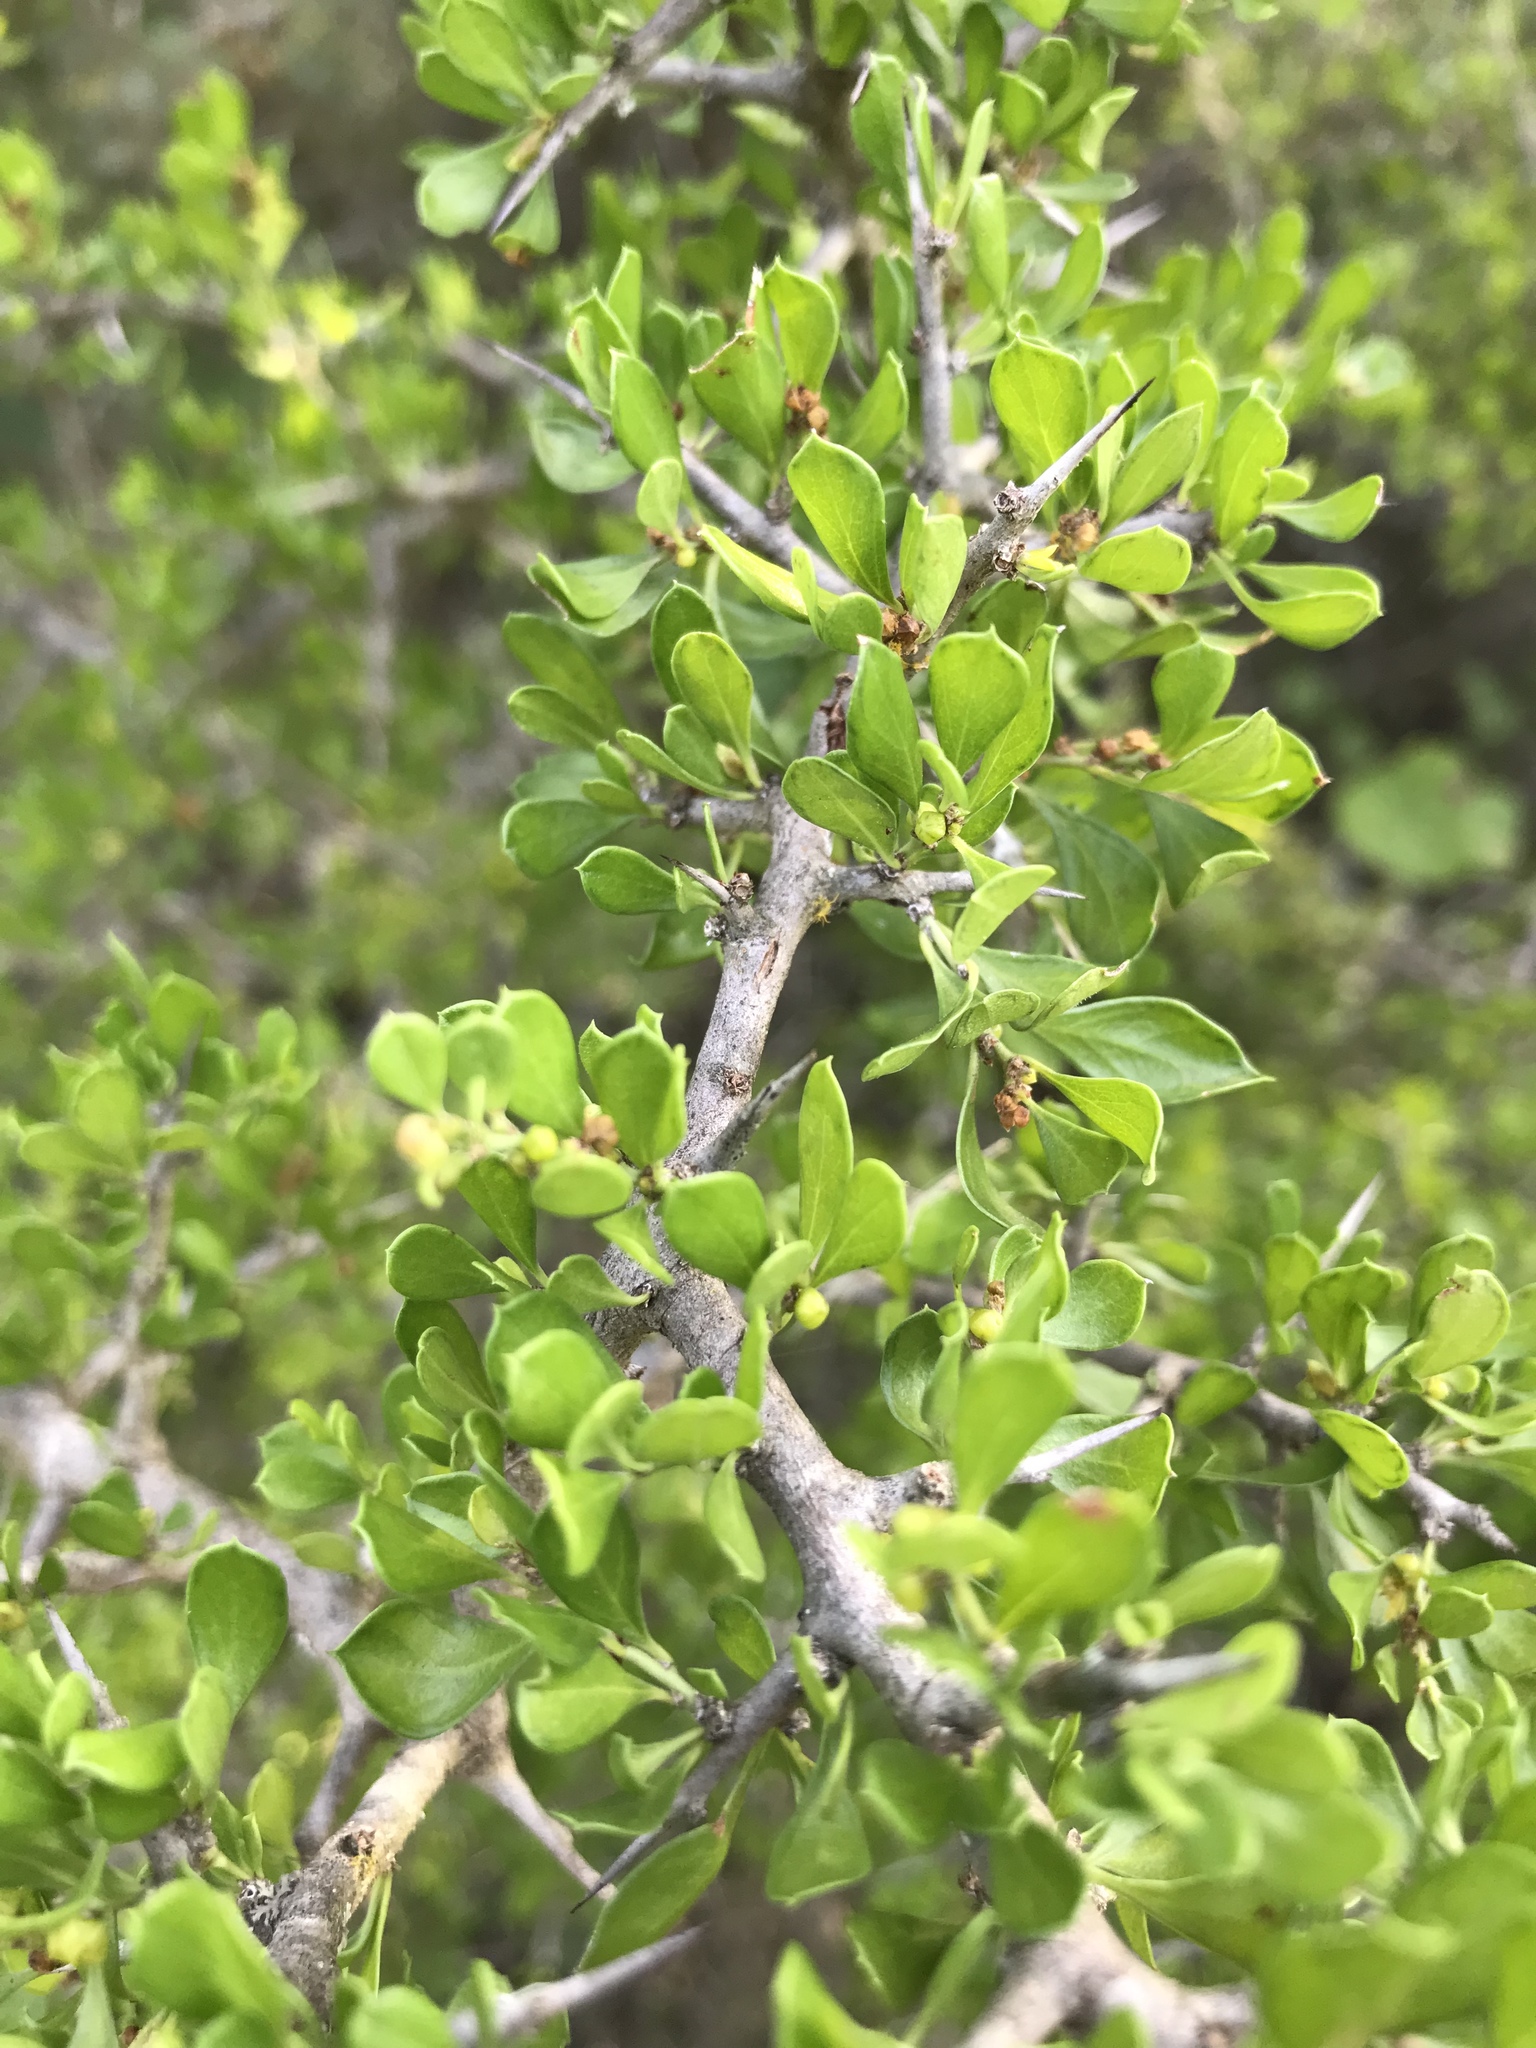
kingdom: Plantae
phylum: Tracheophyta
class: Magnoliopsida
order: Rosales
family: Rhamnaceae
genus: Condalia
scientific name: Condalia hookeri
